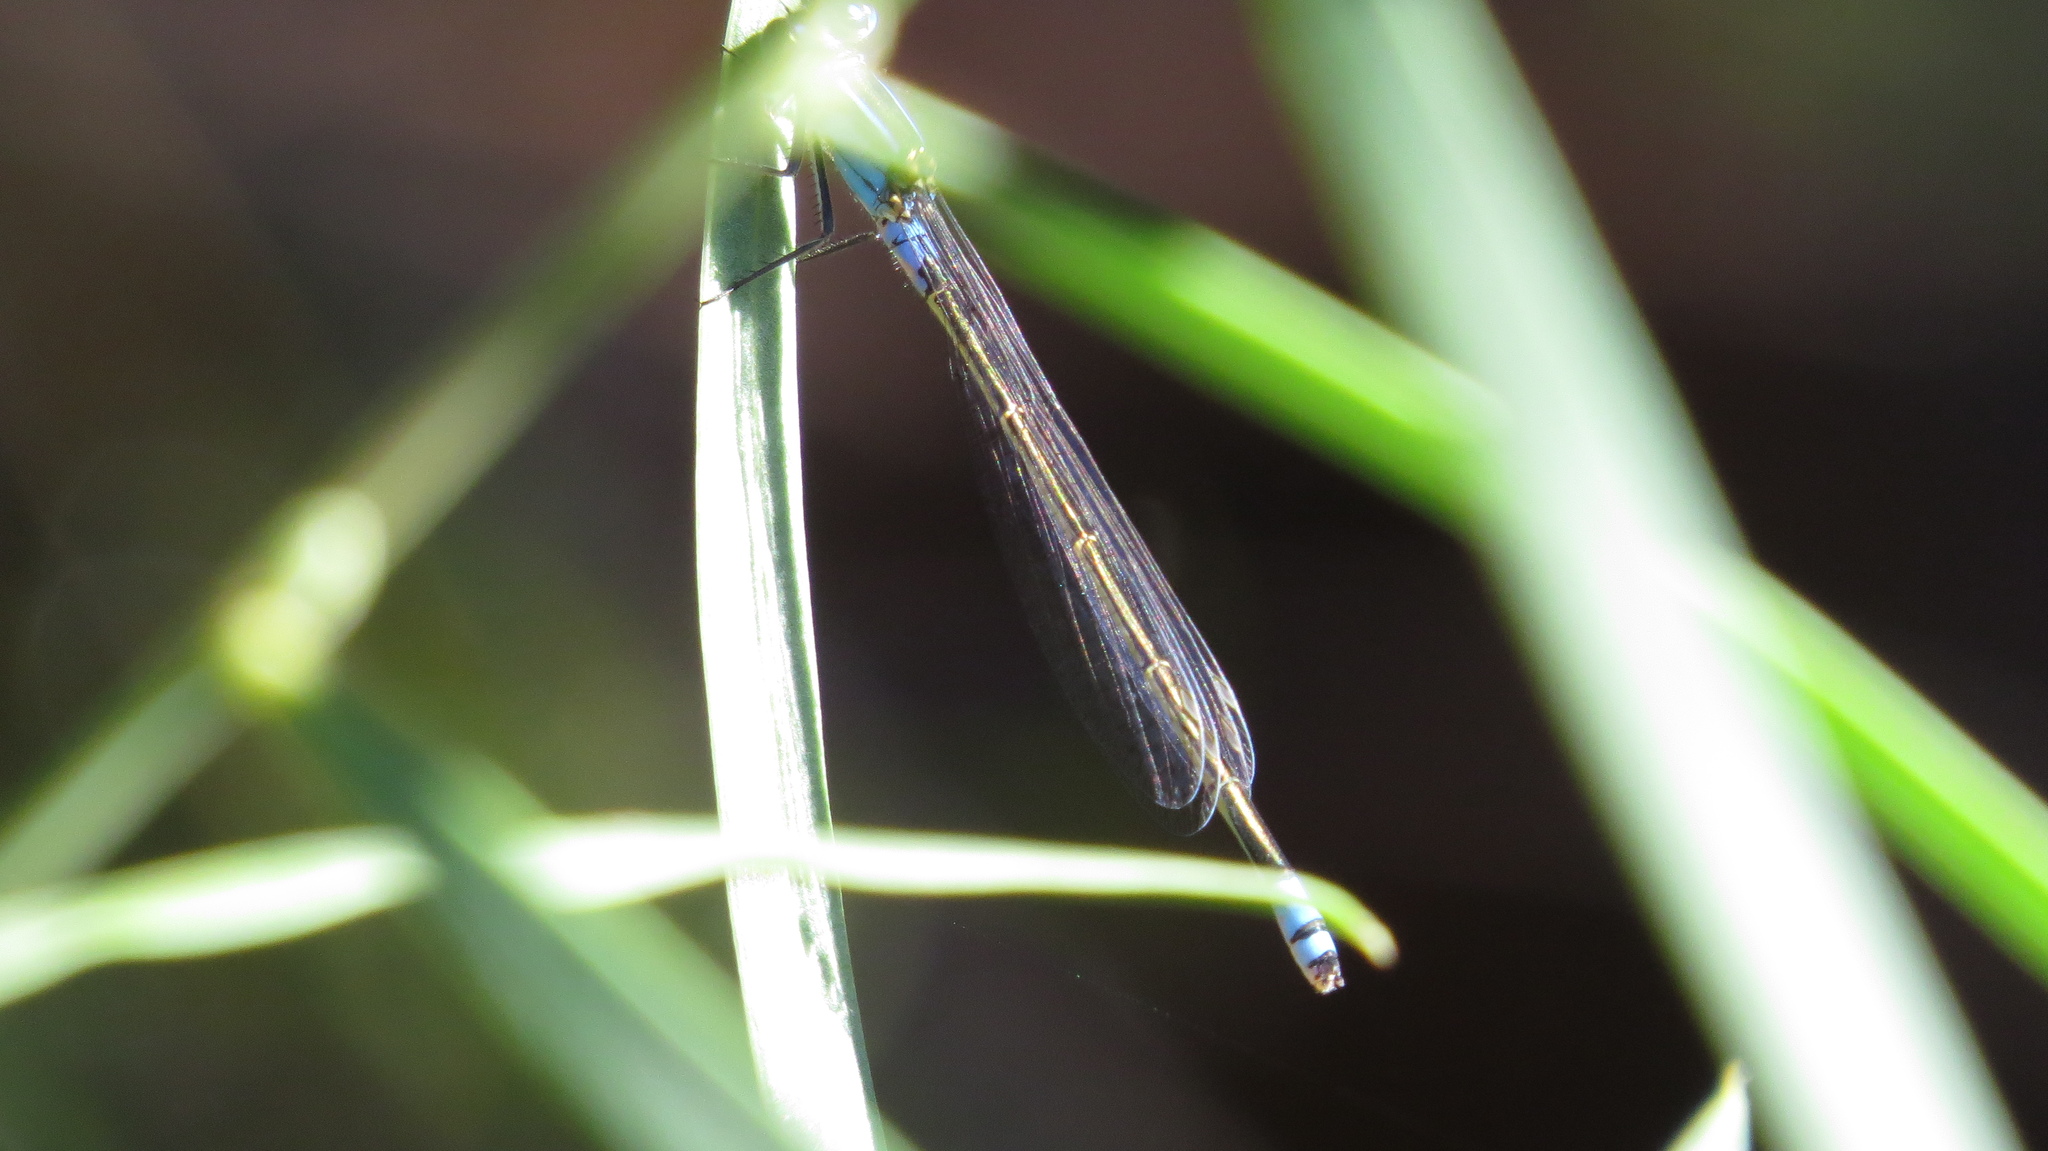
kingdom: Animalia
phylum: Arthropoda
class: Insecta
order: Odonata
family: Coenagrionidae
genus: Ischnura
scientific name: Ischnura heterosticta
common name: Common bluetail
